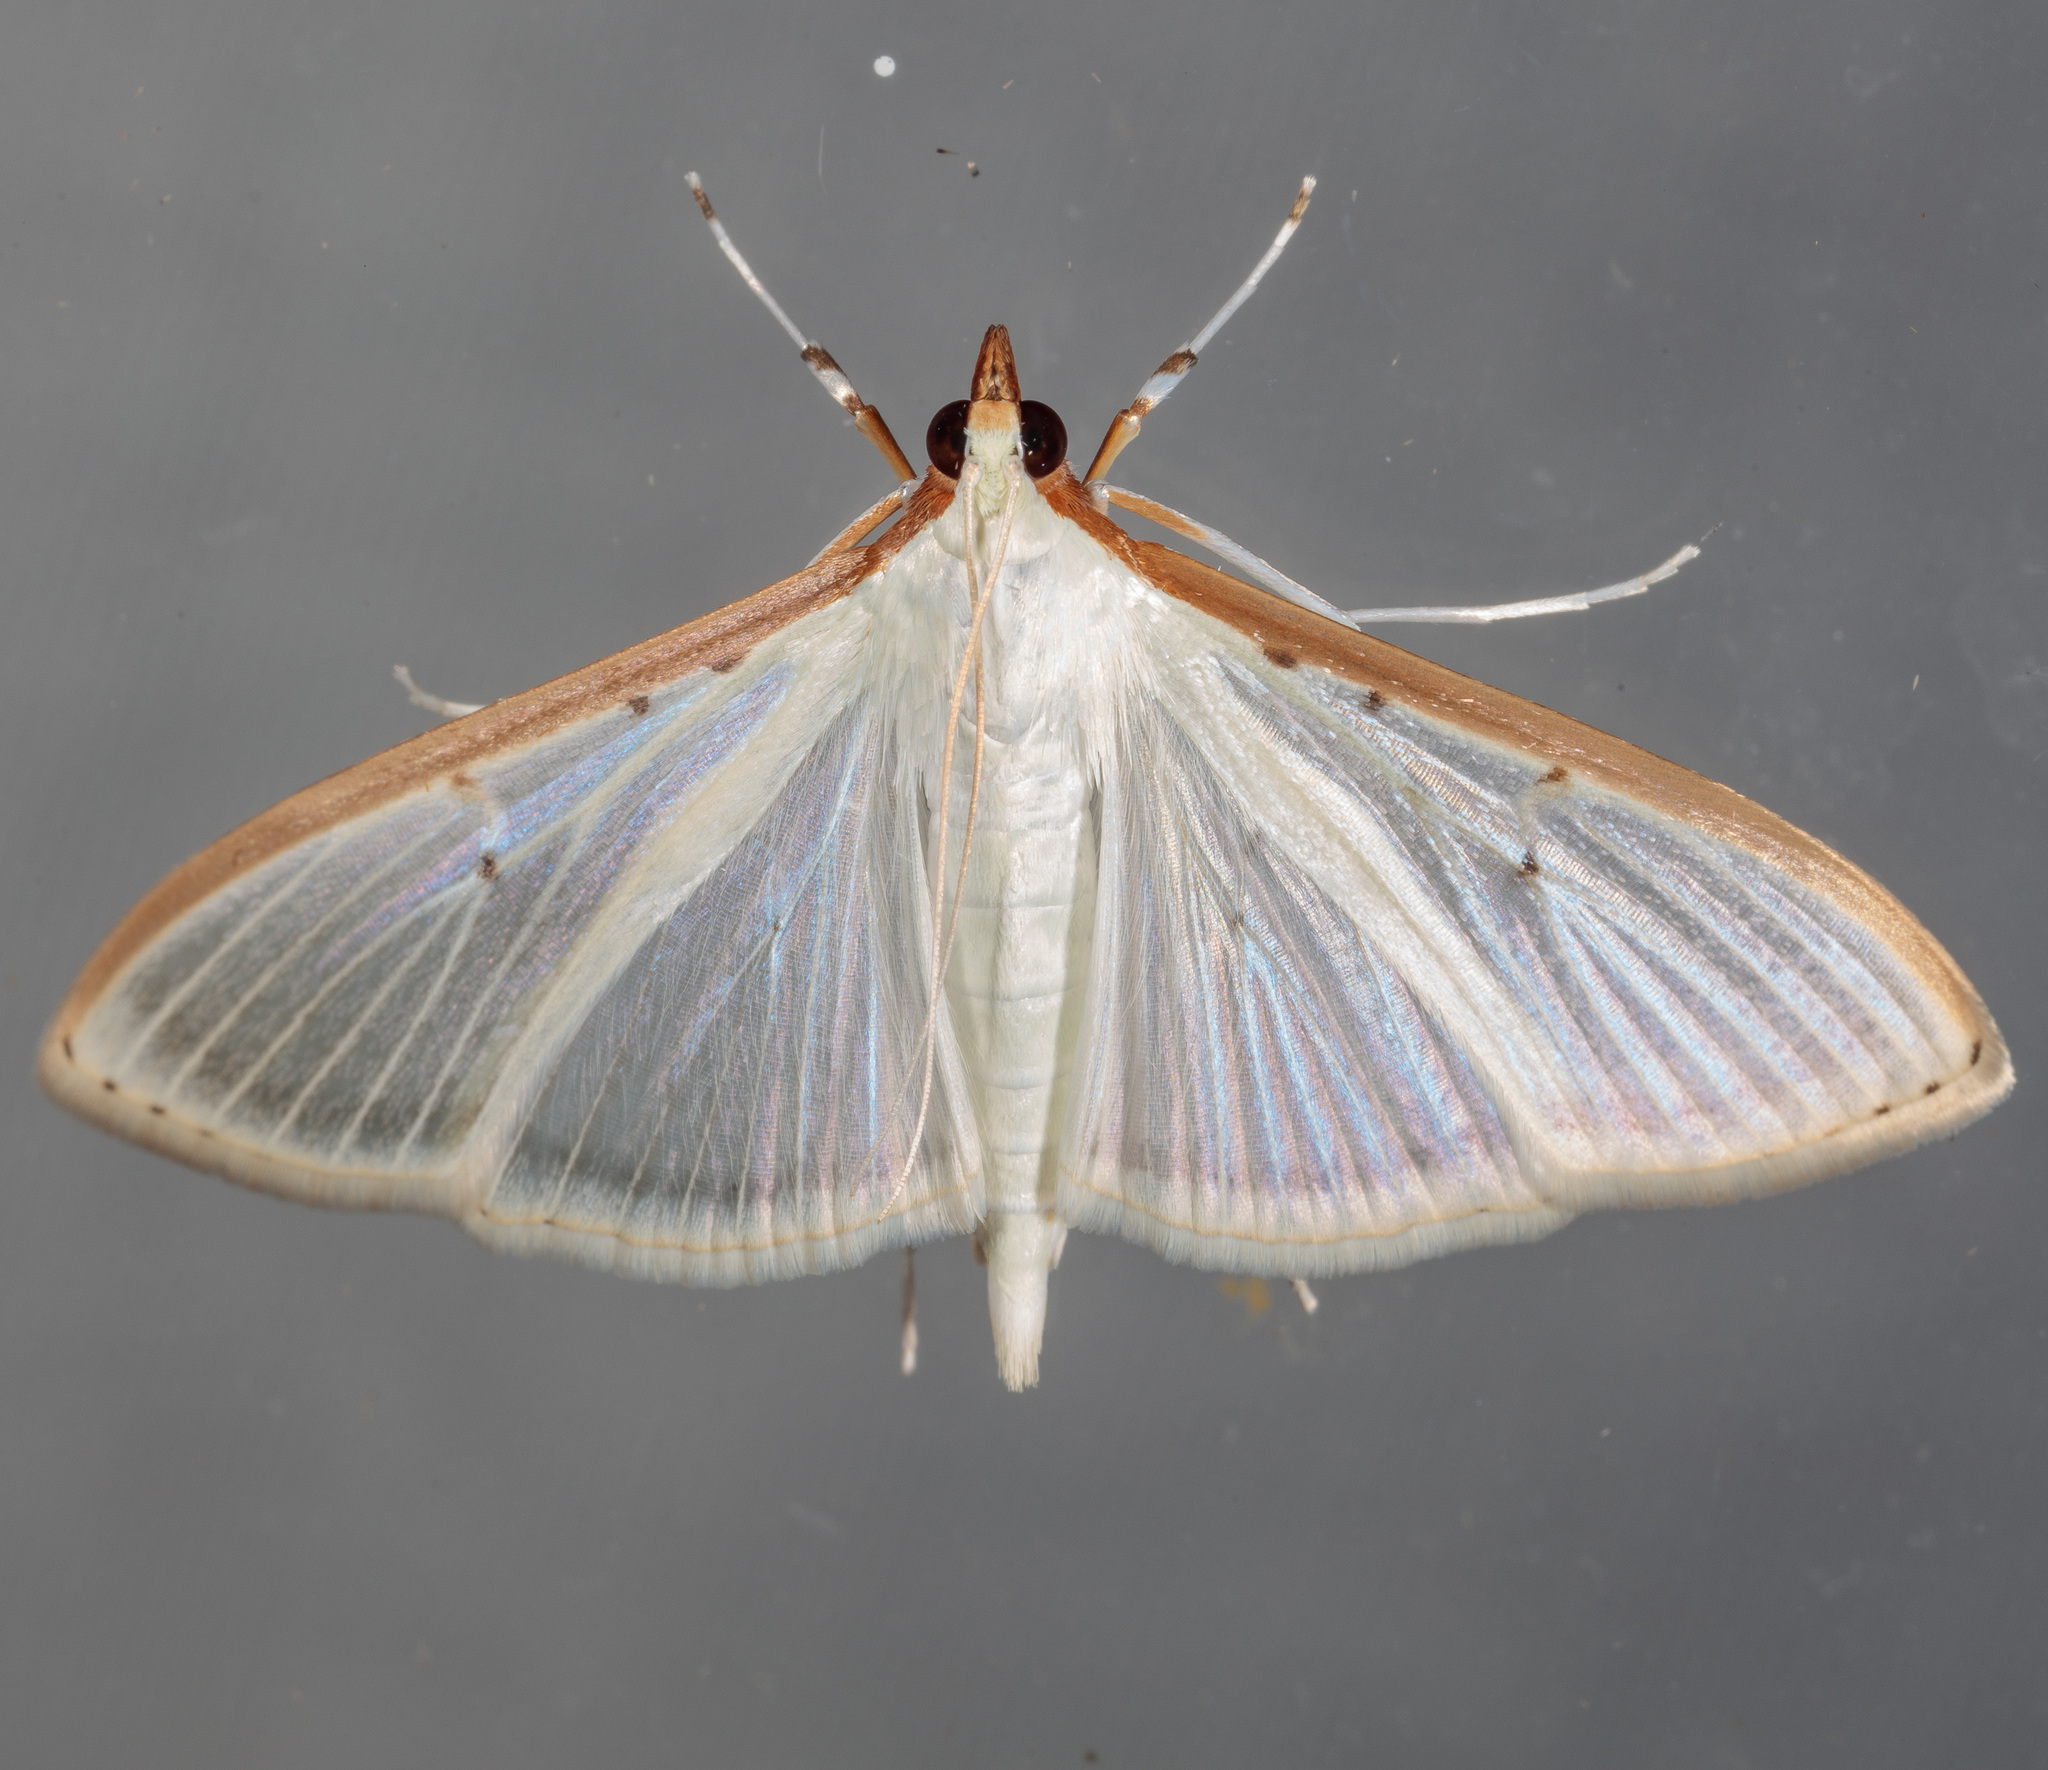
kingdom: Animalia
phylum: Arthropoda
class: Insecta
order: Lepidoptera
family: Crambidae
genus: Palpita
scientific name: Palpita quadristigmalis
